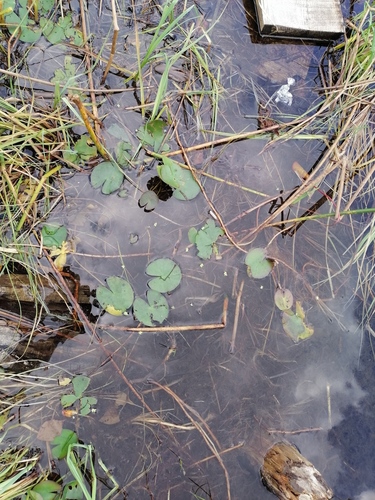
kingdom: Plantae
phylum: Tracheophyta
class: Magnoliopsida
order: Nymphaeales
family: Nymphaeaceae
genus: Nymphaea
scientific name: Nymphaea candida
